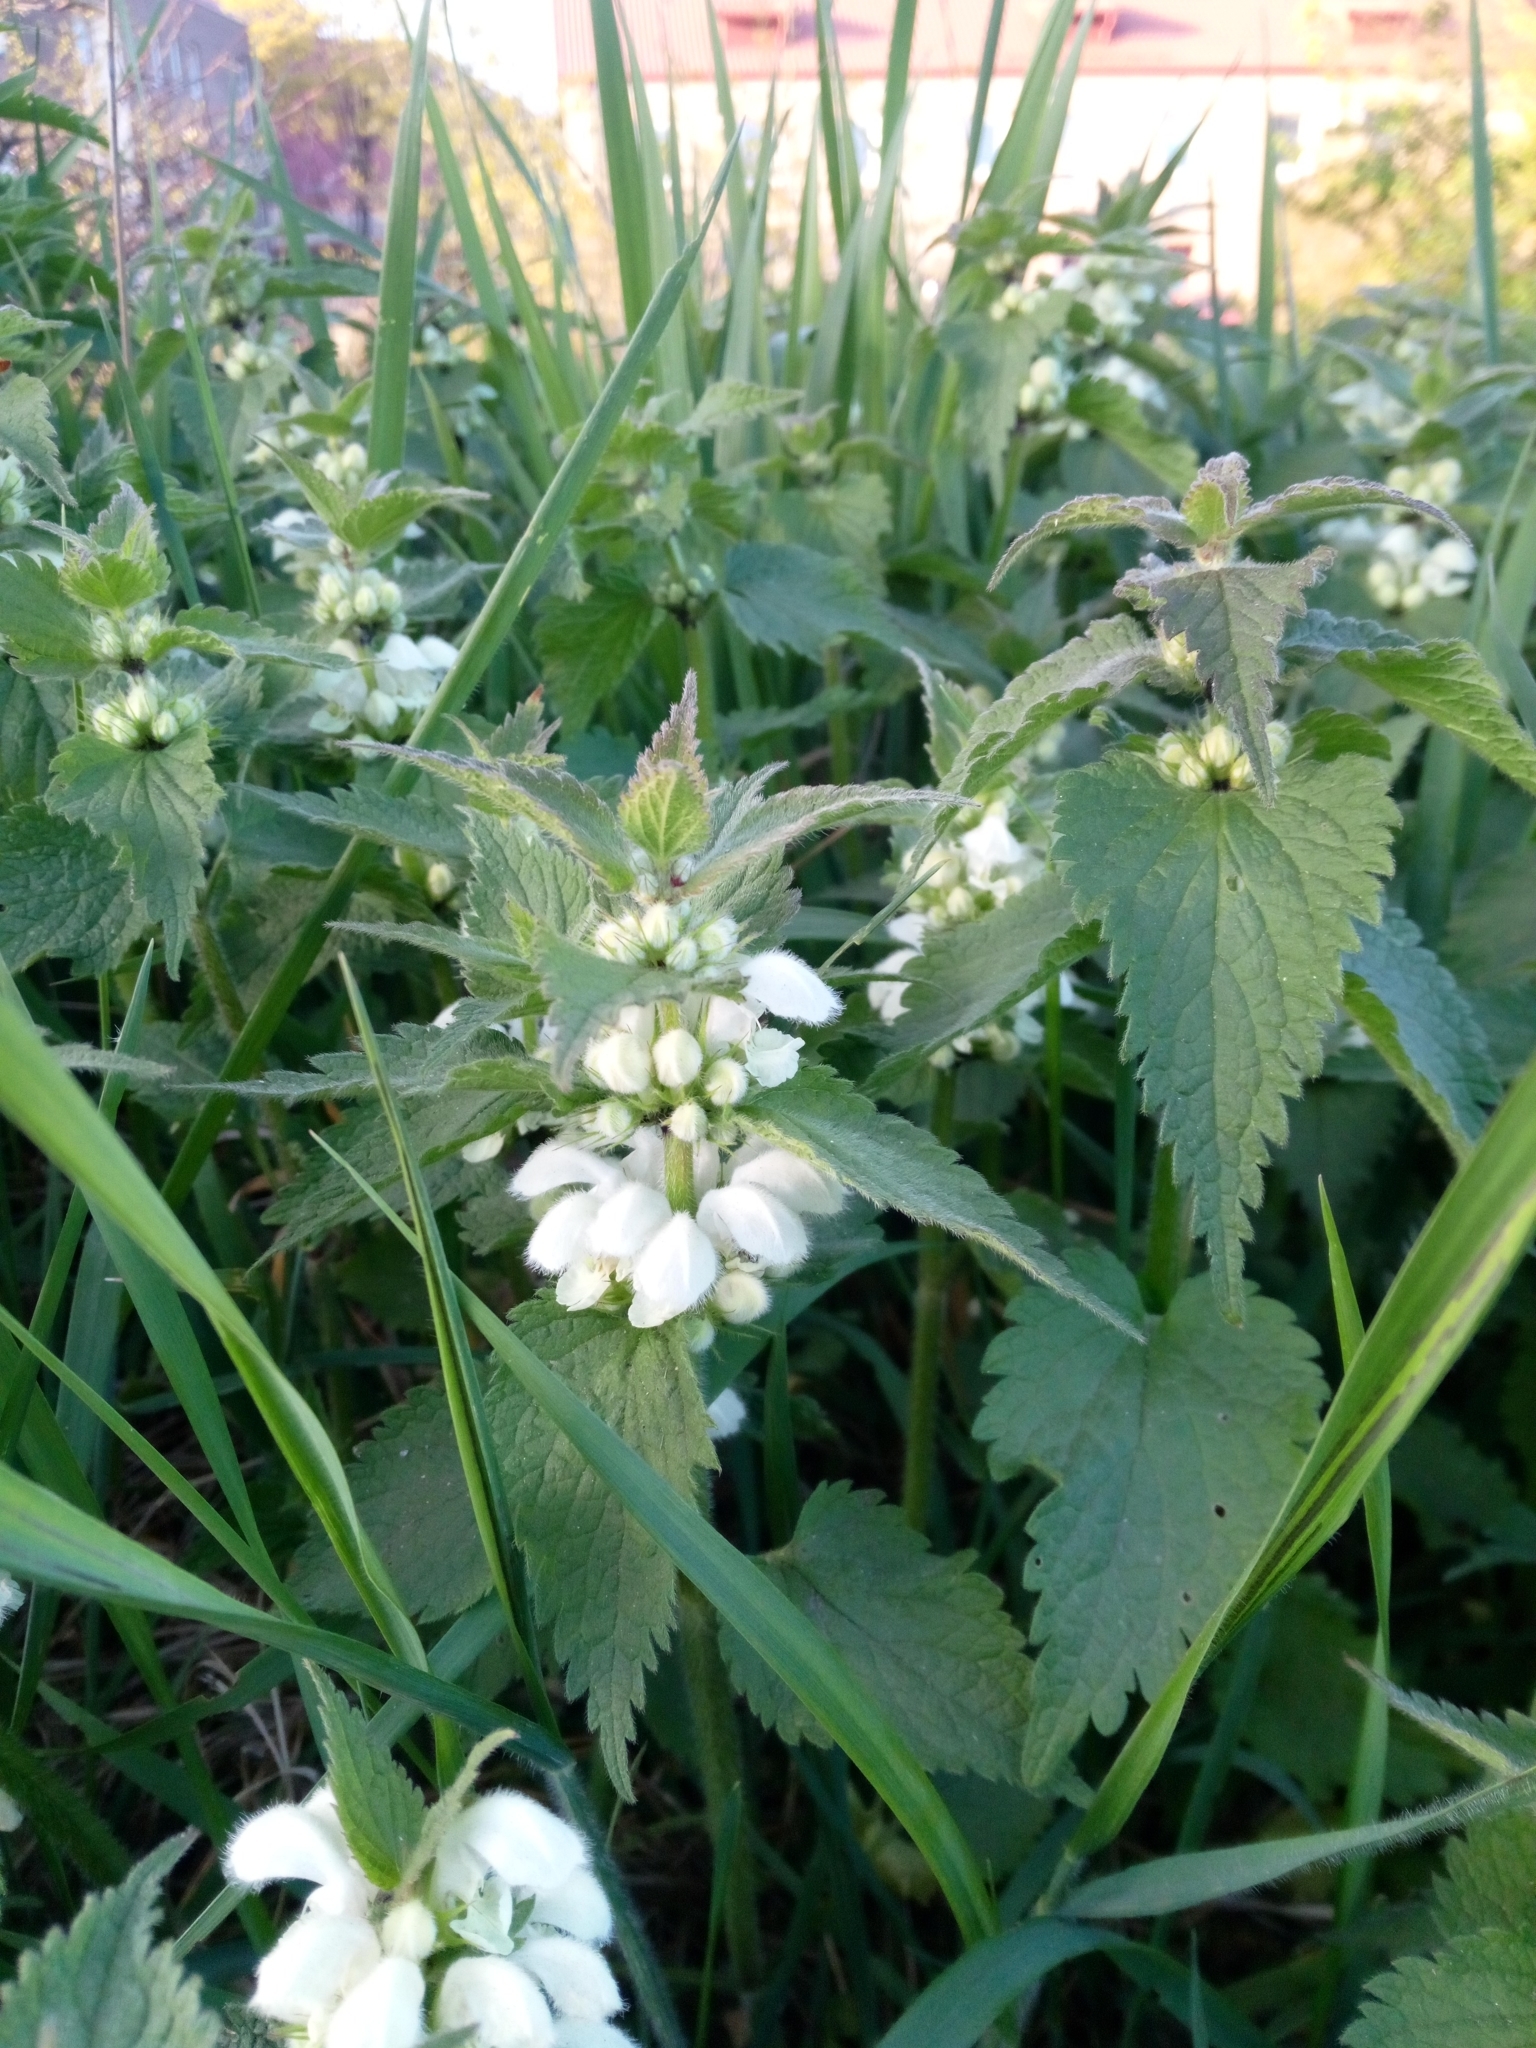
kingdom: Plantae
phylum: Tracheophyta
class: Magnoliopsida
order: Lamiales
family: Lamiaceae
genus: Lamium
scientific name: Lamium album
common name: White dead-nettle
